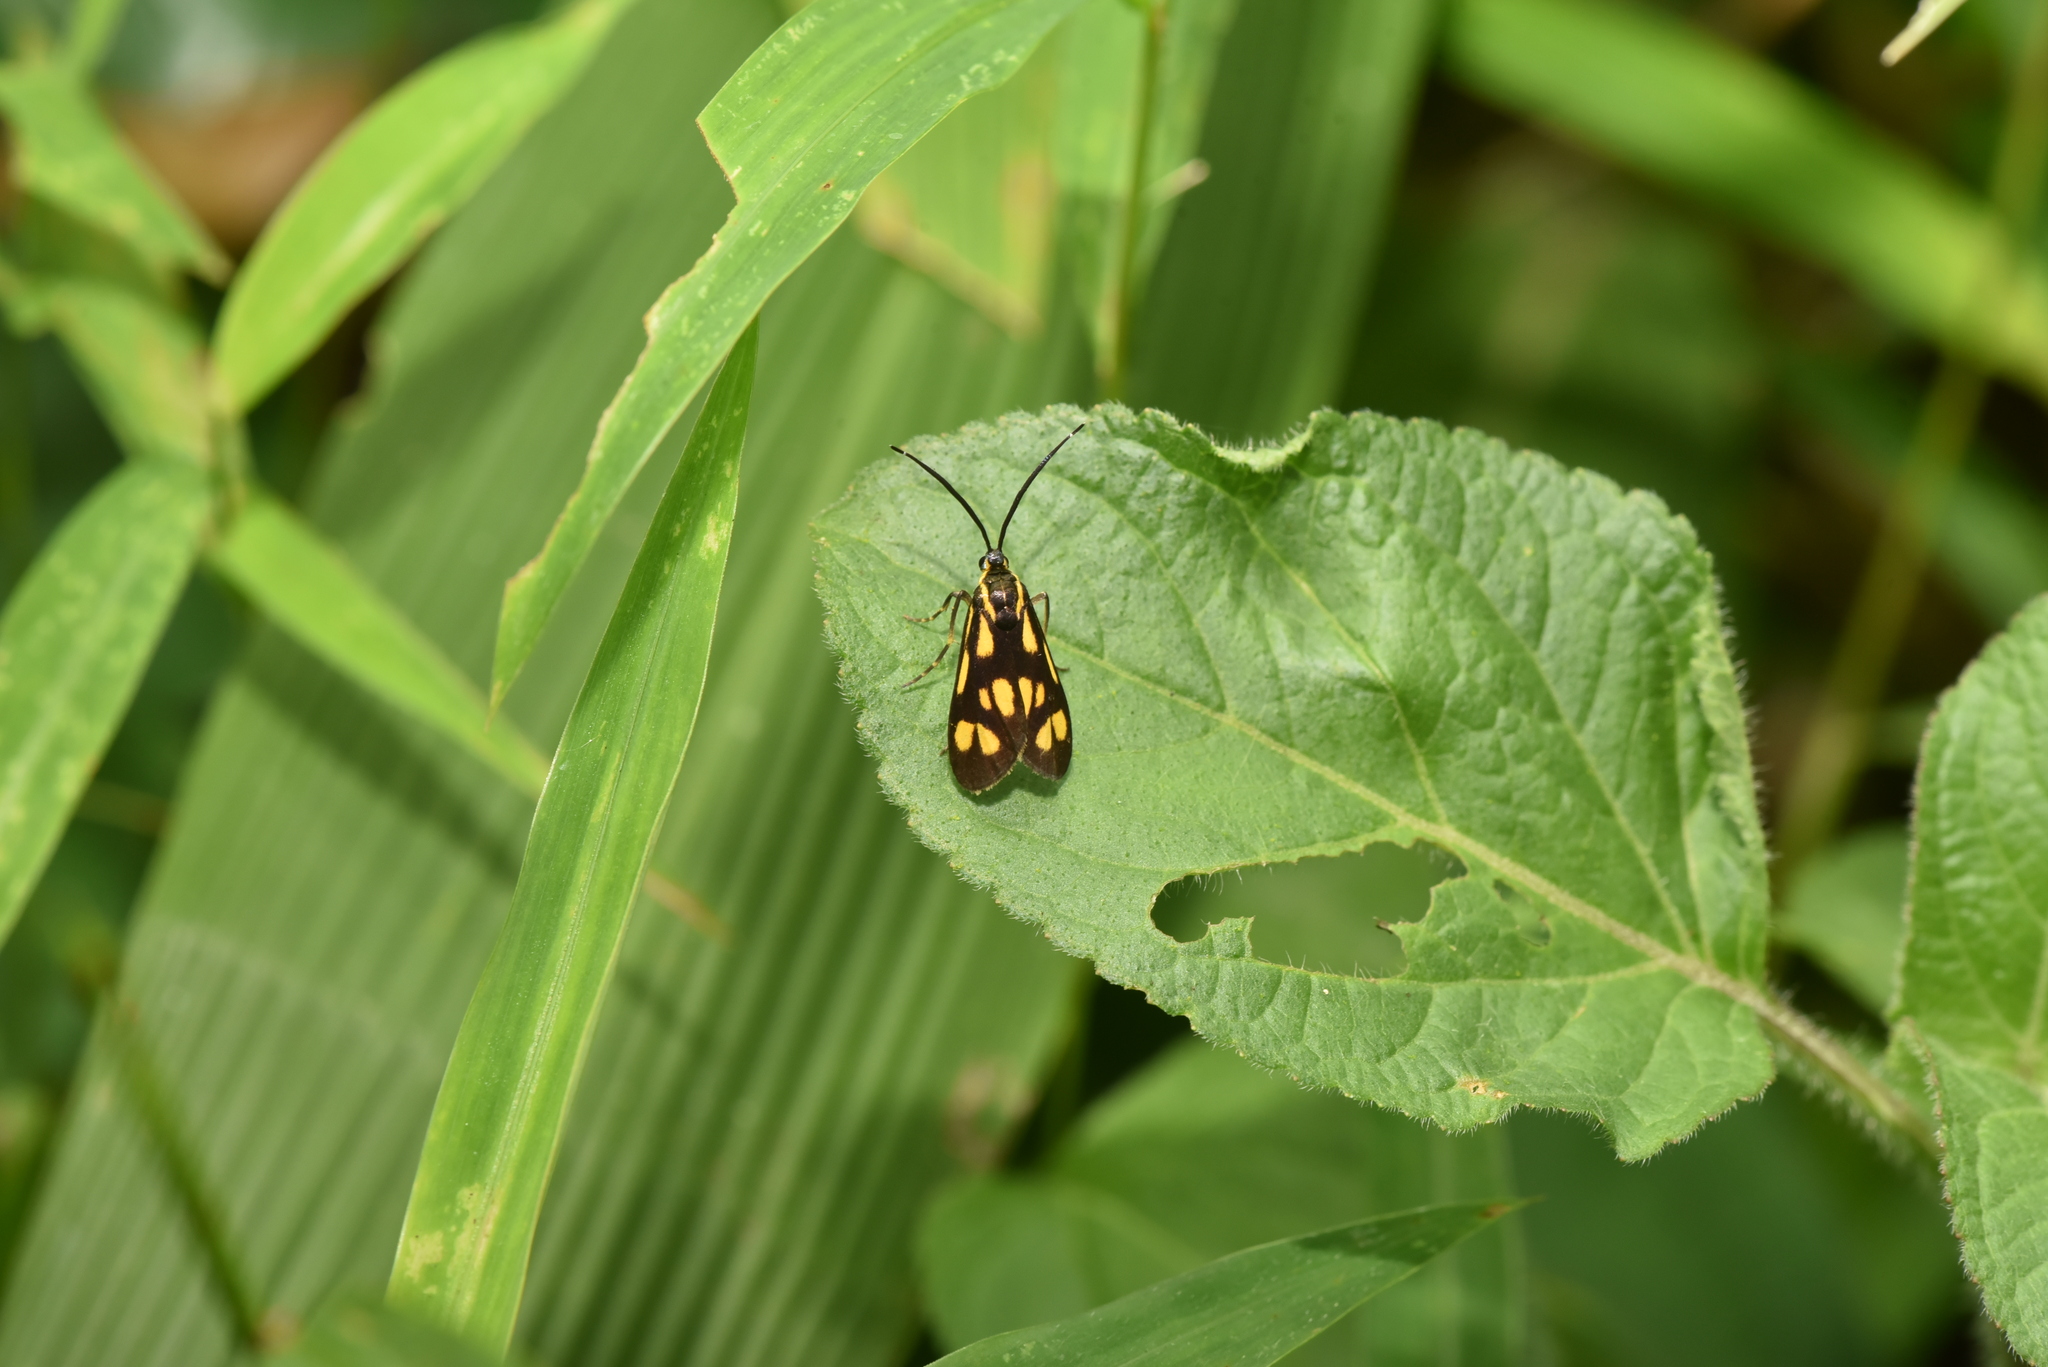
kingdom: Animalia
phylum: Arthropoda
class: Insecta
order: Lepidoptera
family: Zygaenidae
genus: Artona
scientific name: Artona walkeri
